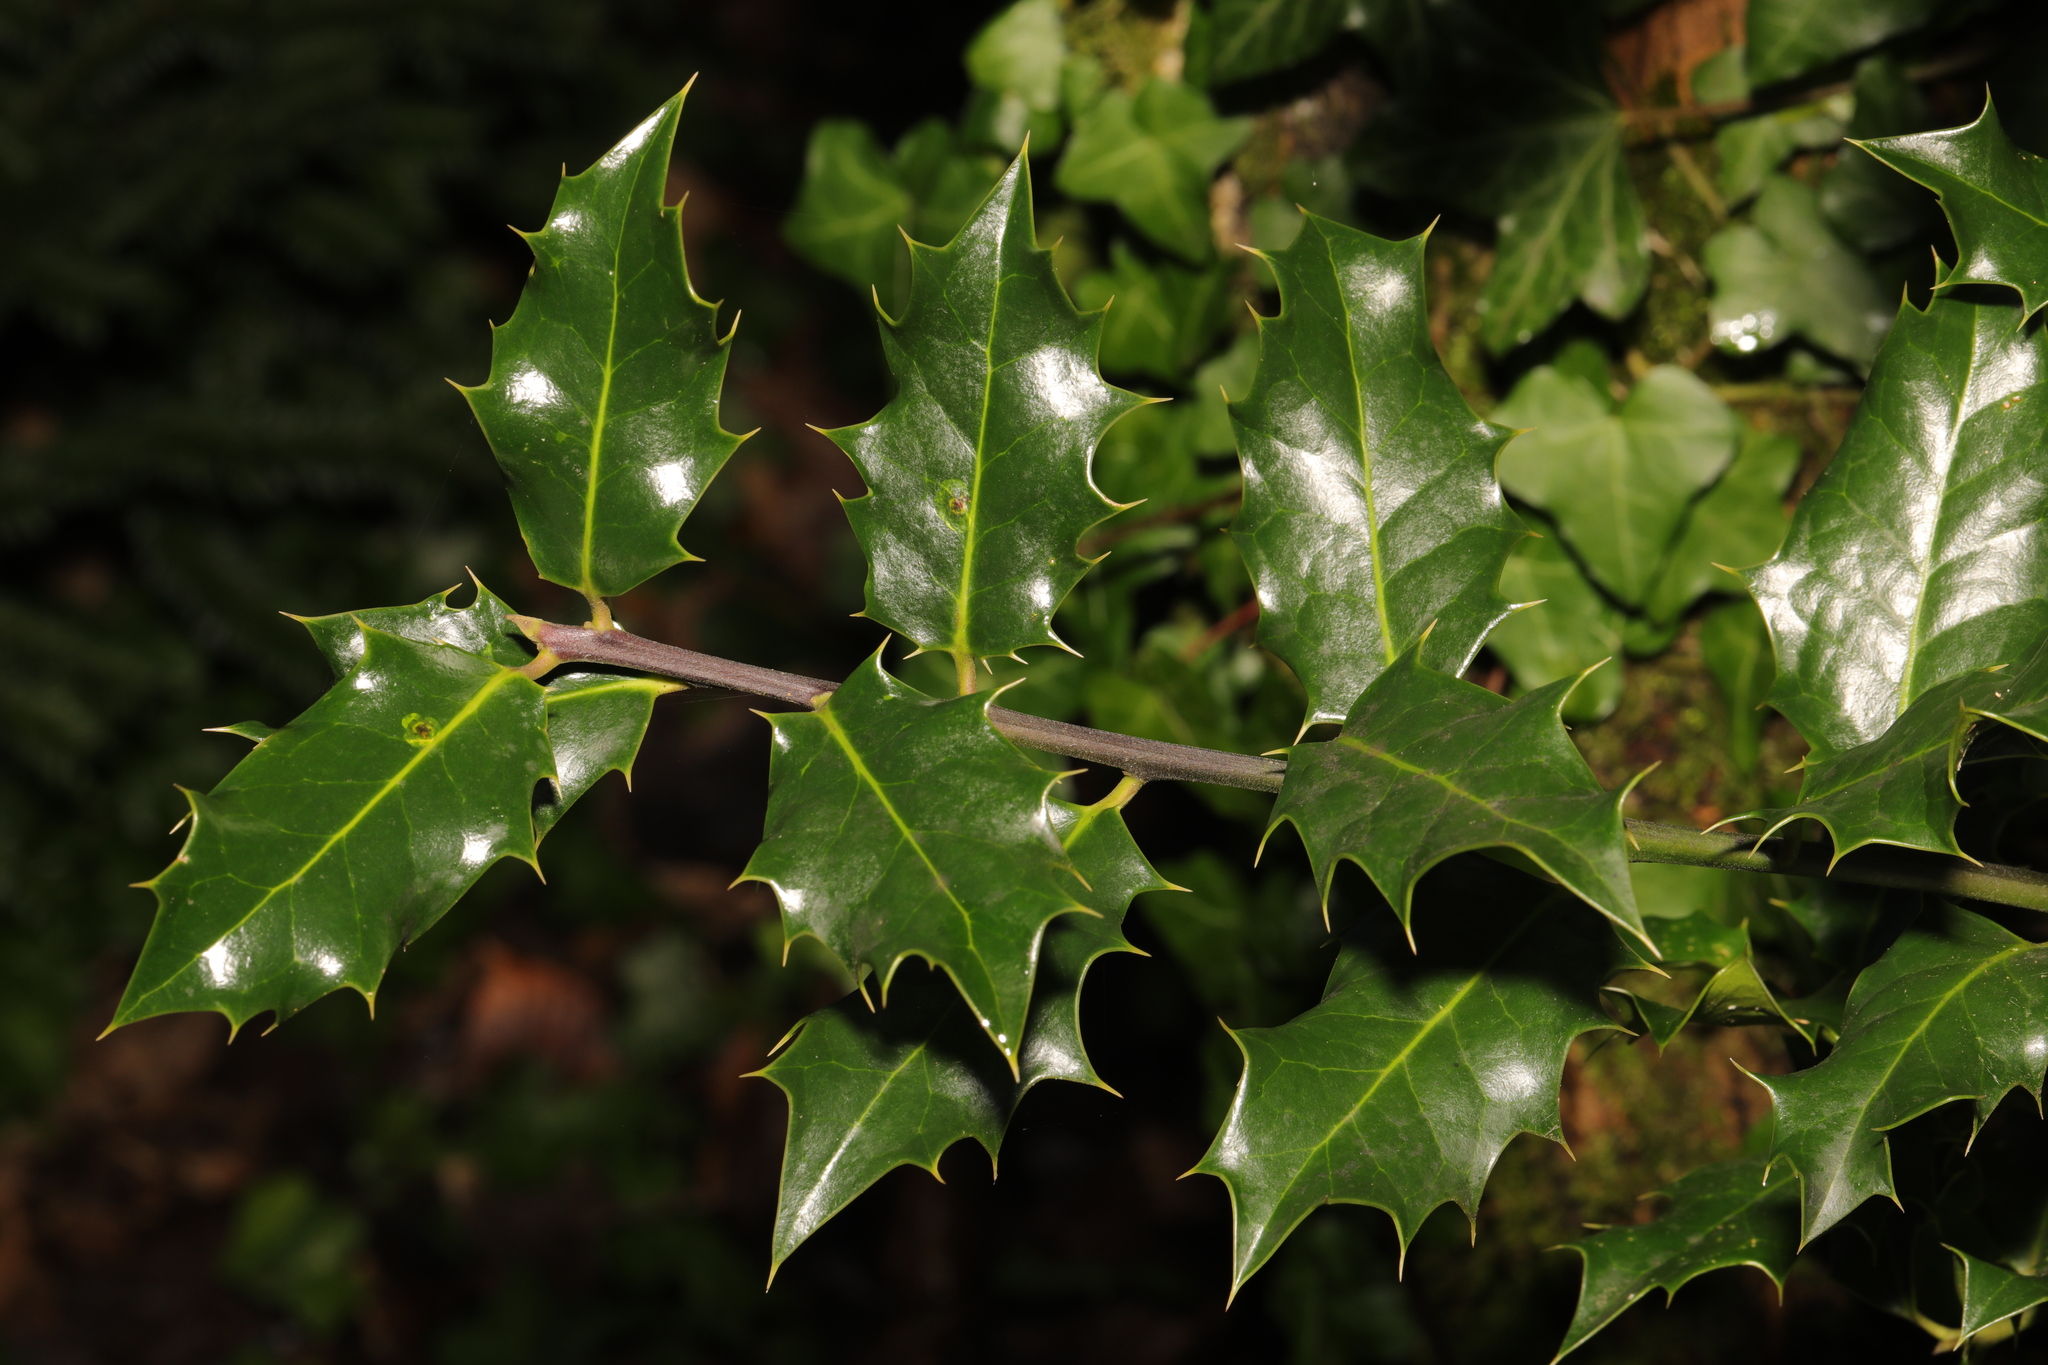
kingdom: Plantae
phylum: Tracheophyta
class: Magnoliopsida
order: Aquifoliales
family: Aquifoliaceae
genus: Ilex
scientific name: Ilex aquifolium
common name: English holly
